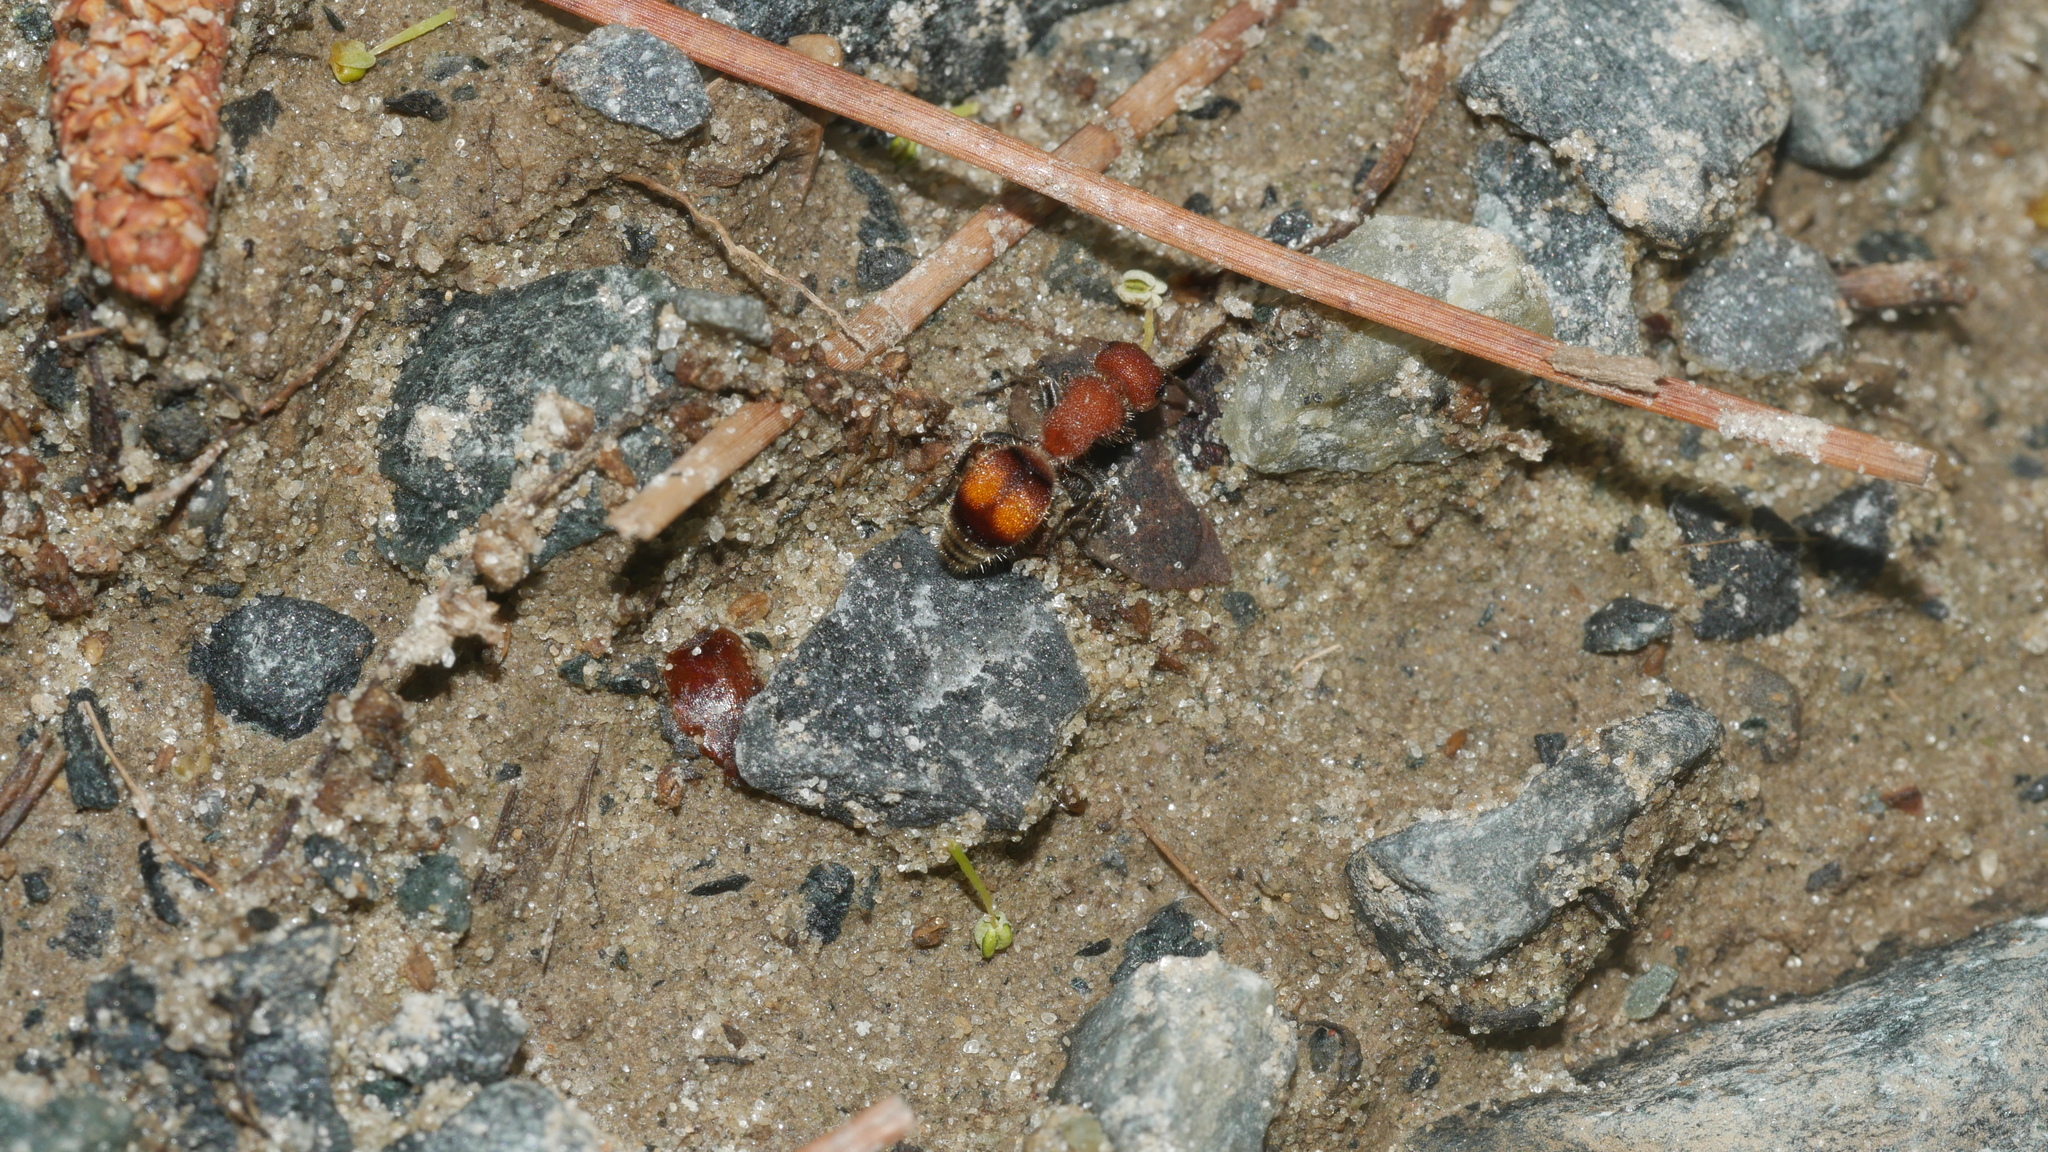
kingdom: Animalia
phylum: Arthropoda
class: Insecta
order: Hymenoptera
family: Mutillidae
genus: Pseudomethoca
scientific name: Pseudomethoca
